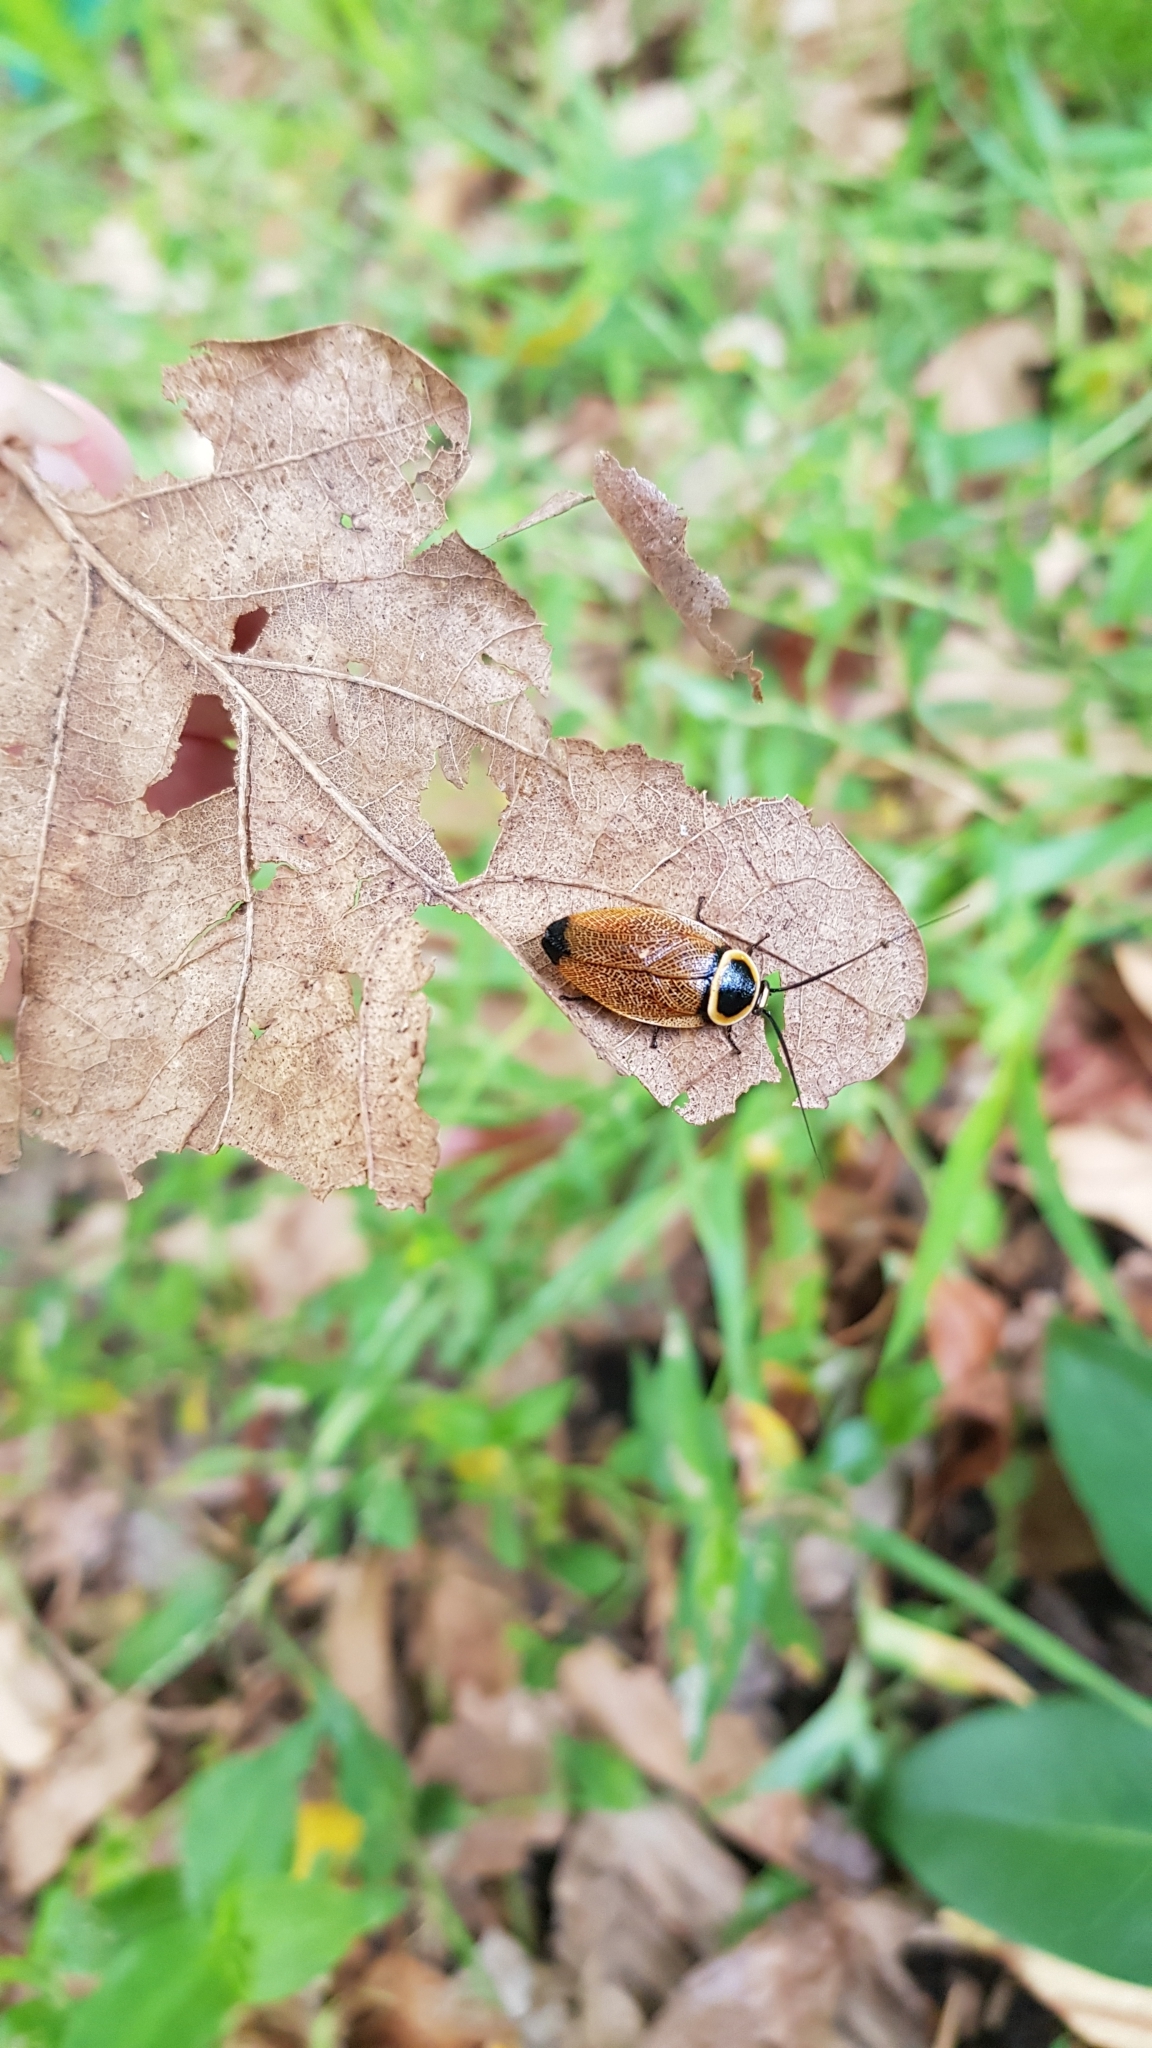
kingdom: Animalia
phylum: Arthropoda
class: Insecta
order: Blattodea
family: Ectobiidae
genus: Ellipsidion
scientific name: Ellipsidion australe
